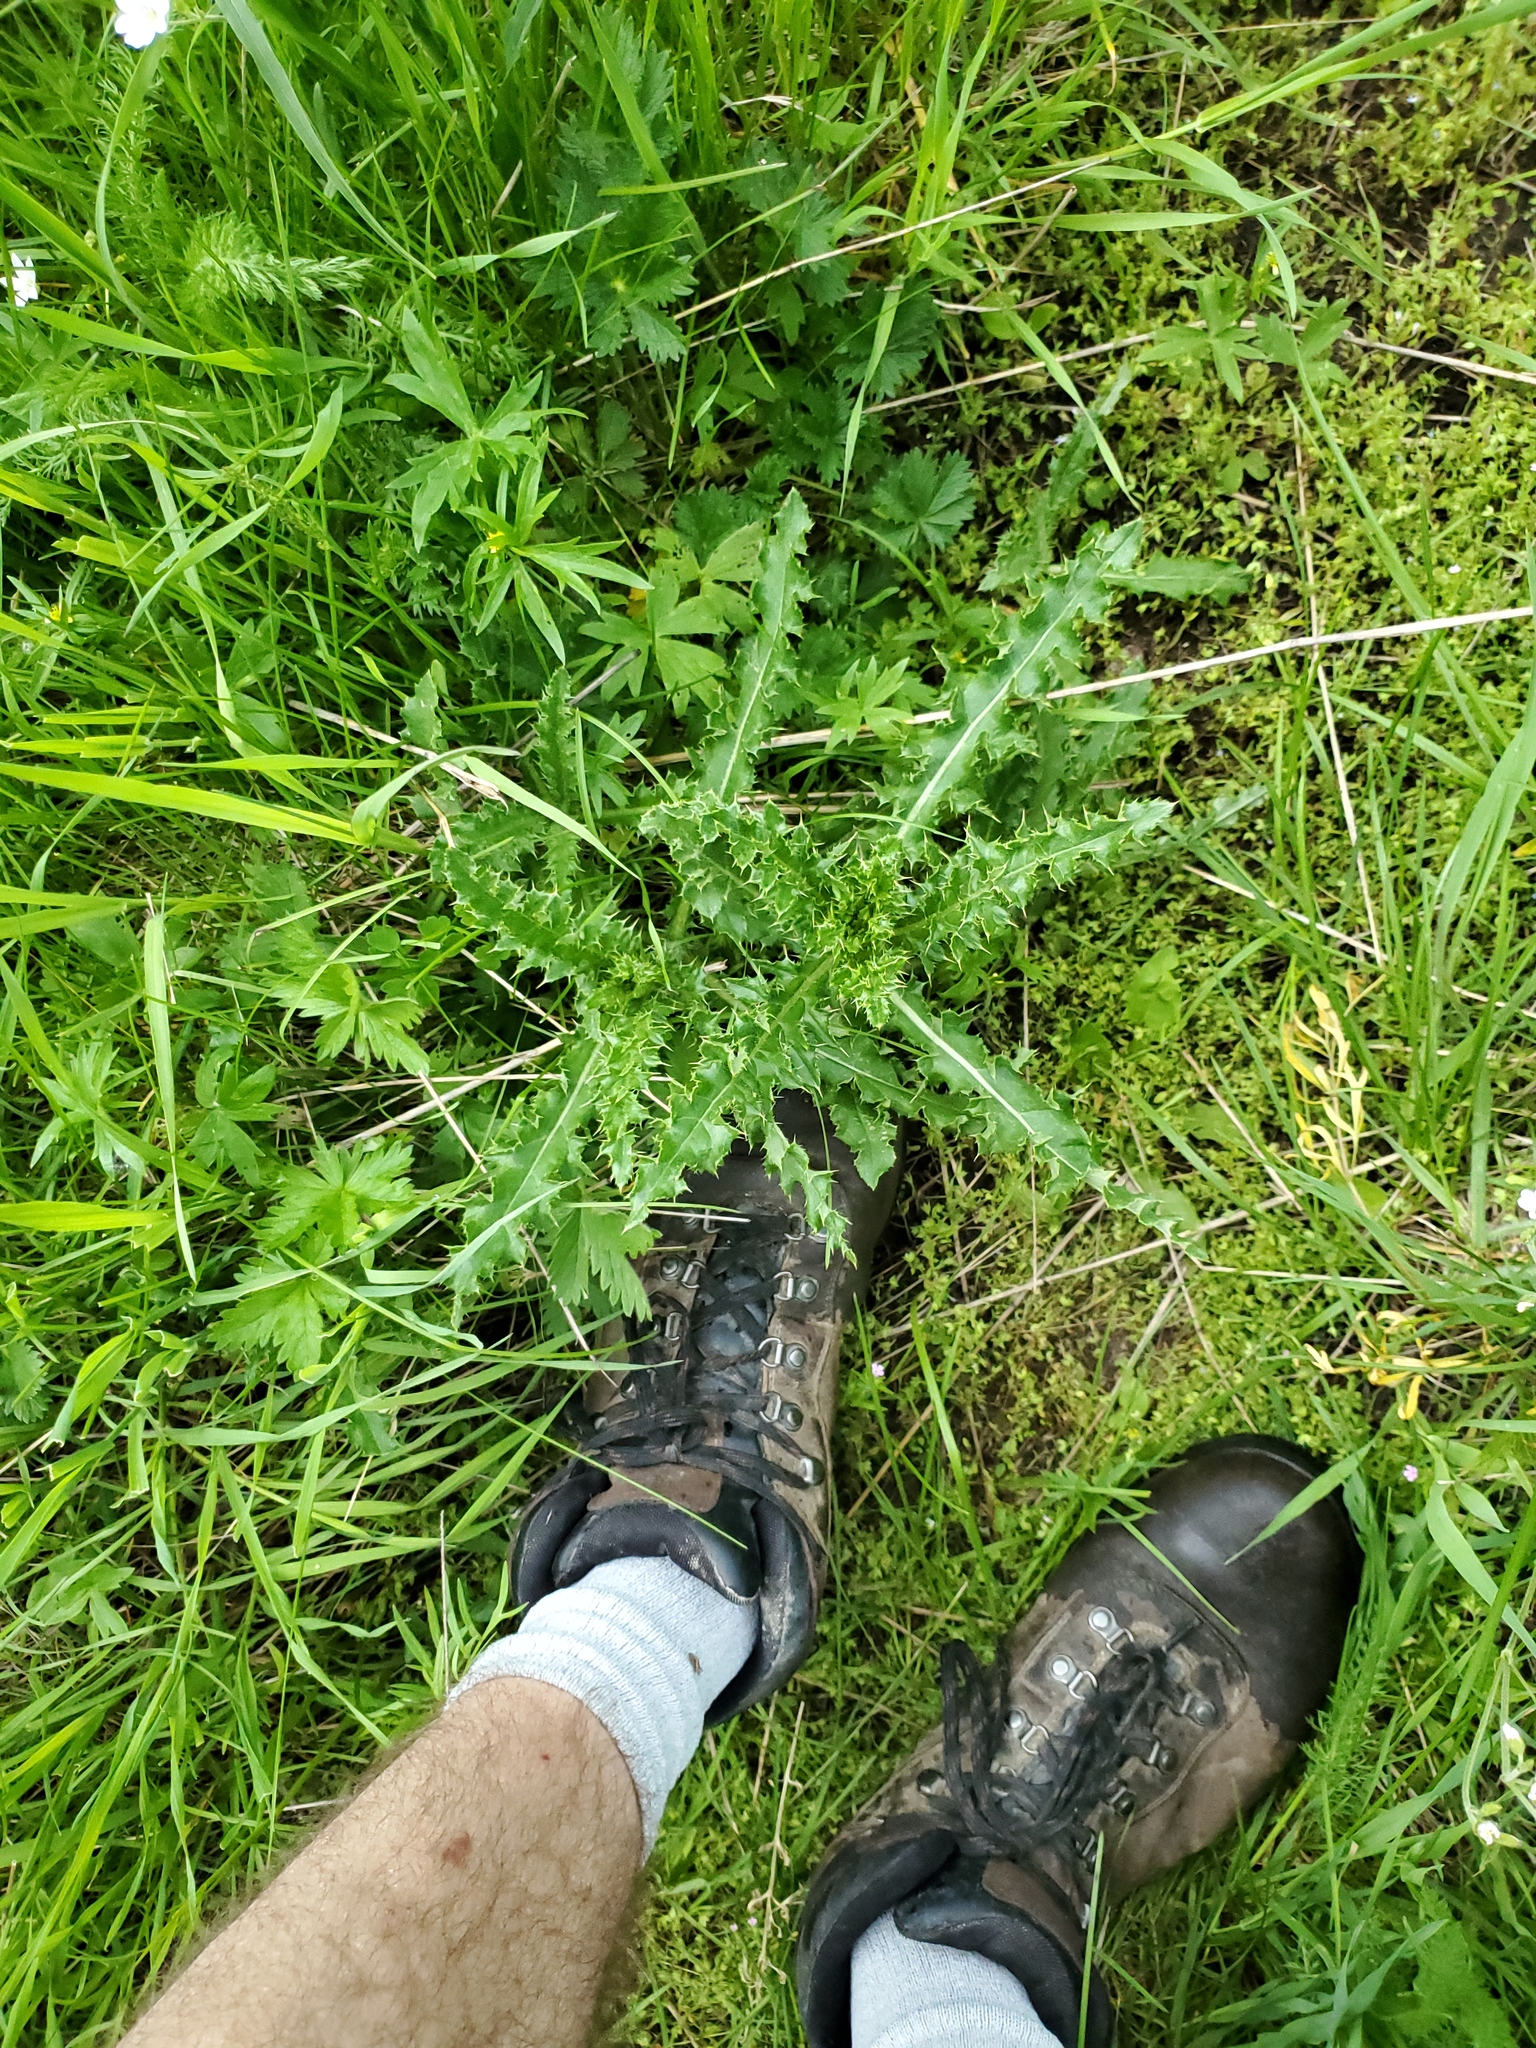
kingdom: Plantae
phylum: Tracheophyta
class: Magnoliopsida
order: Asterales
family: Asteraceae
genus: Cirsium
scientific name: Cirsium arvense
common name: Creeping thistle
